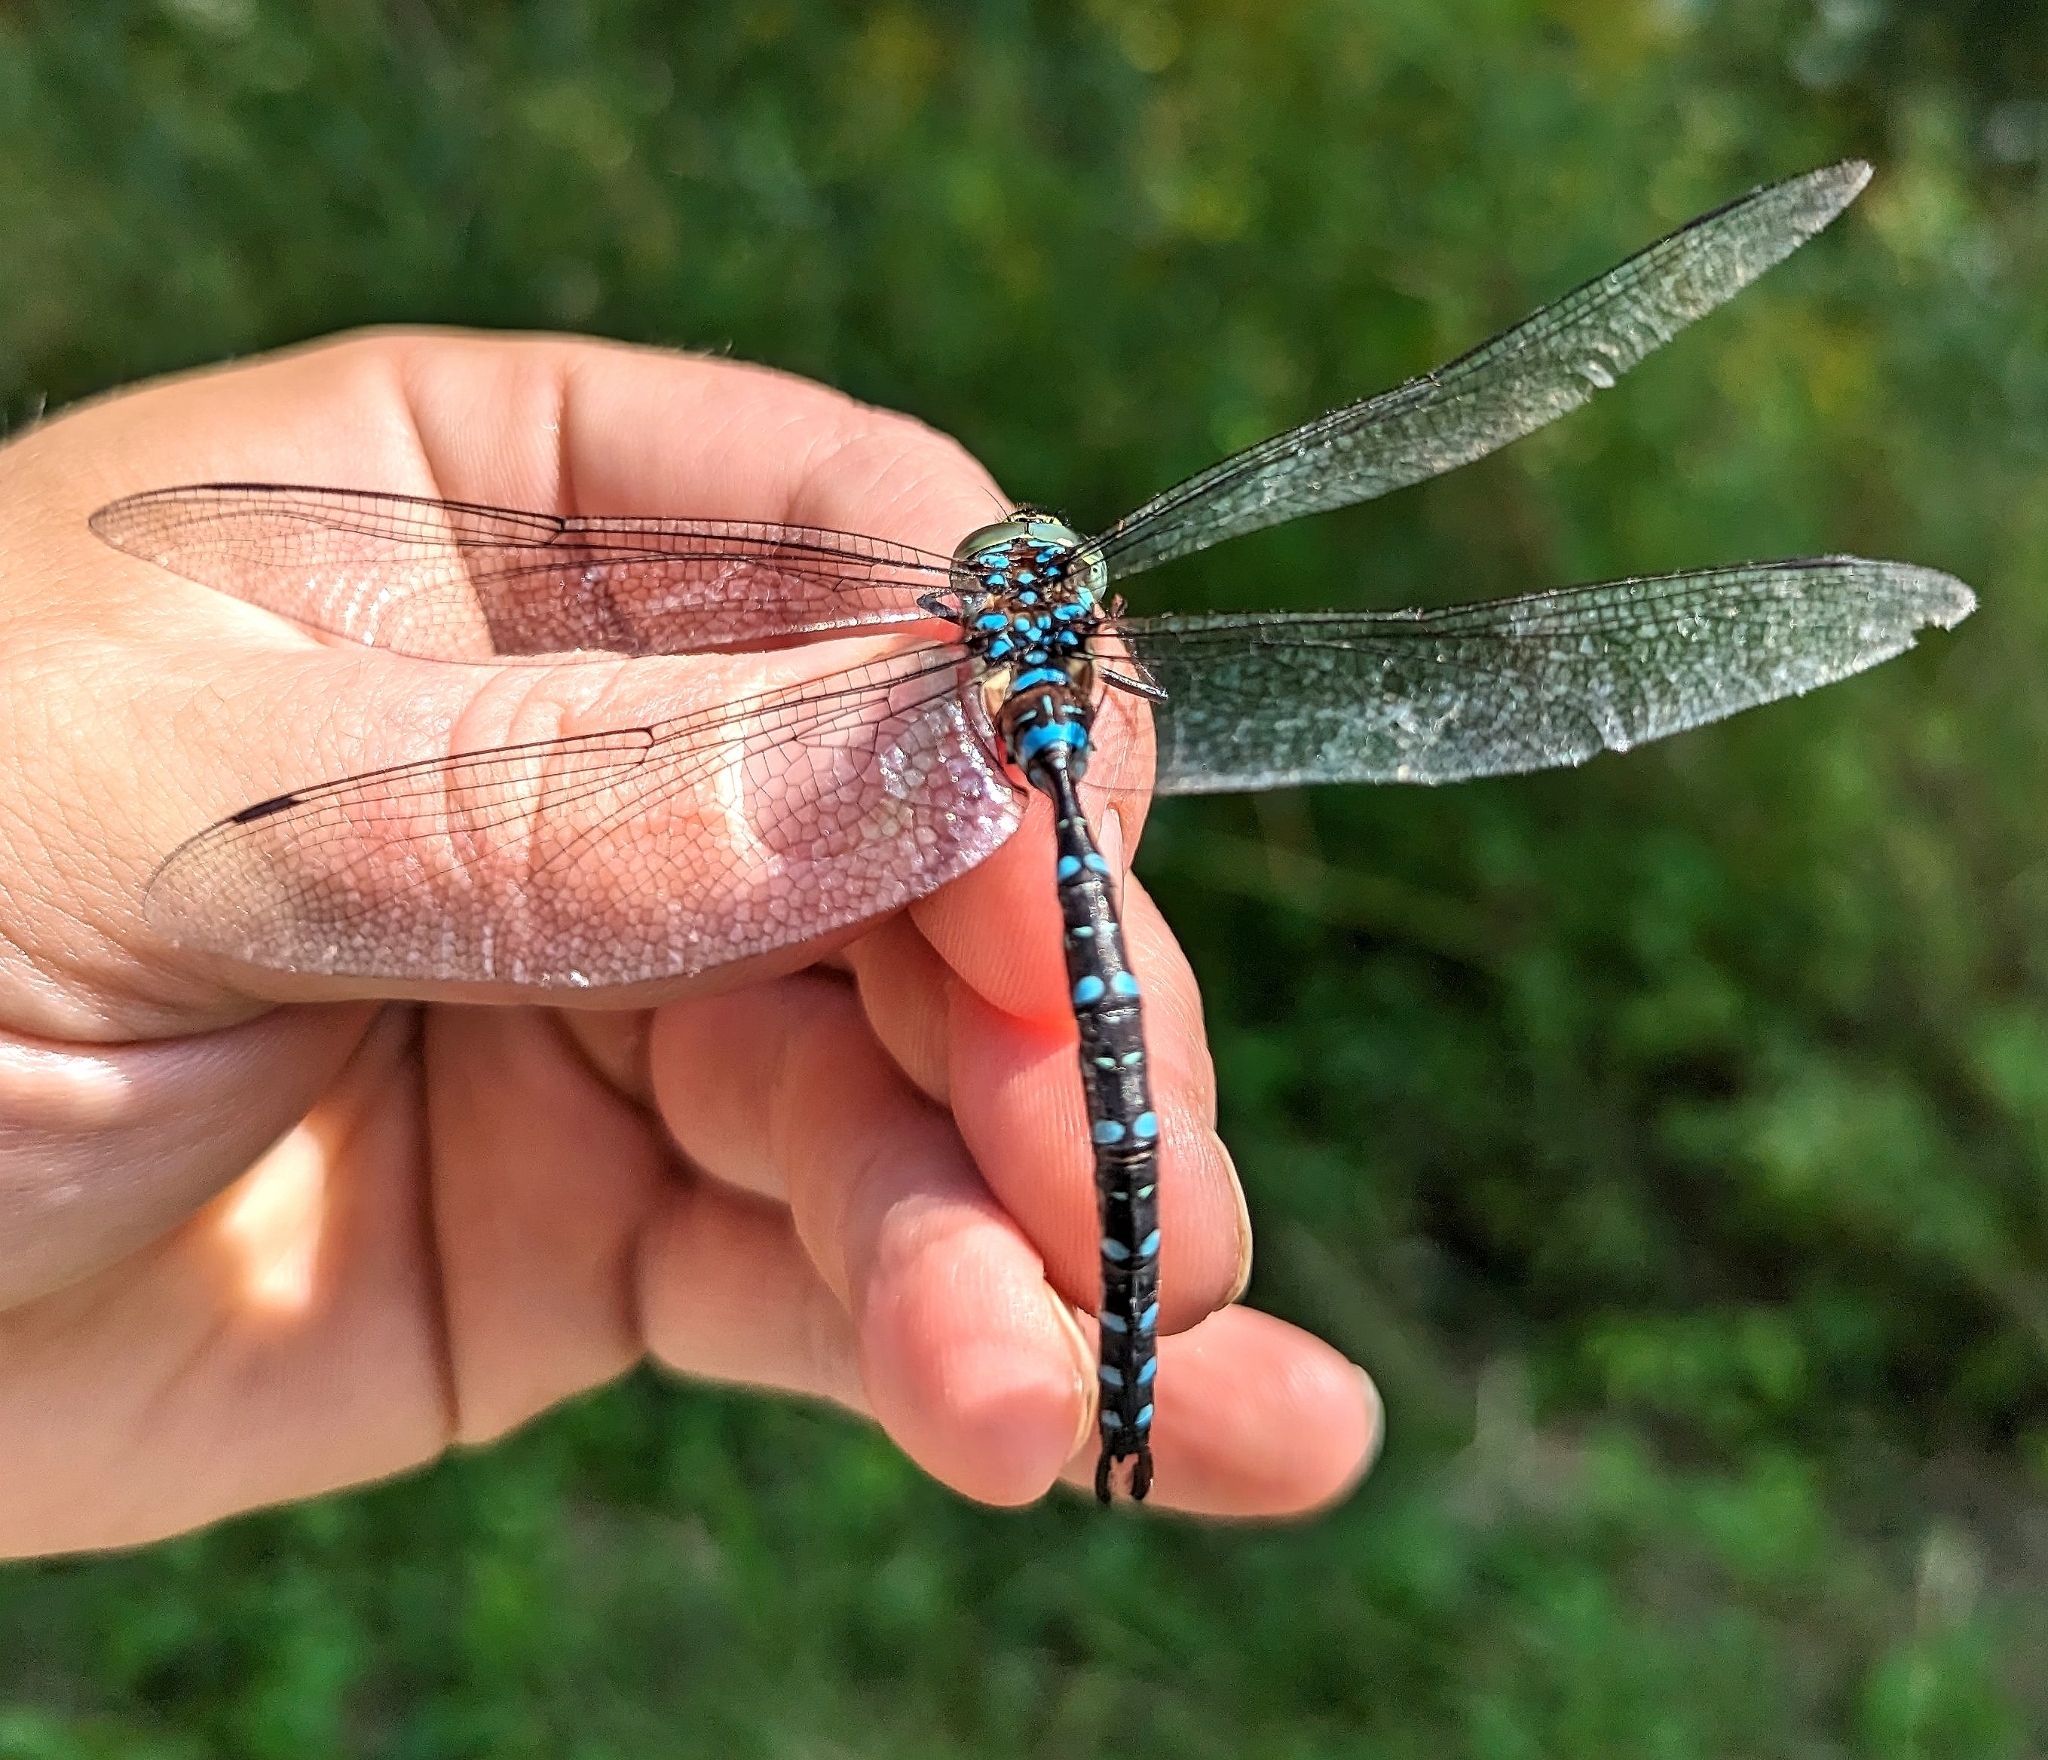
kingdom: Animalia
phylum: Arthropoda
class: Insecta
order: Odonata
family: Aeshnidae
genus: Aeshna
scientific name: Aeshna tuberculifera
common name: Aeschne à tubercules
